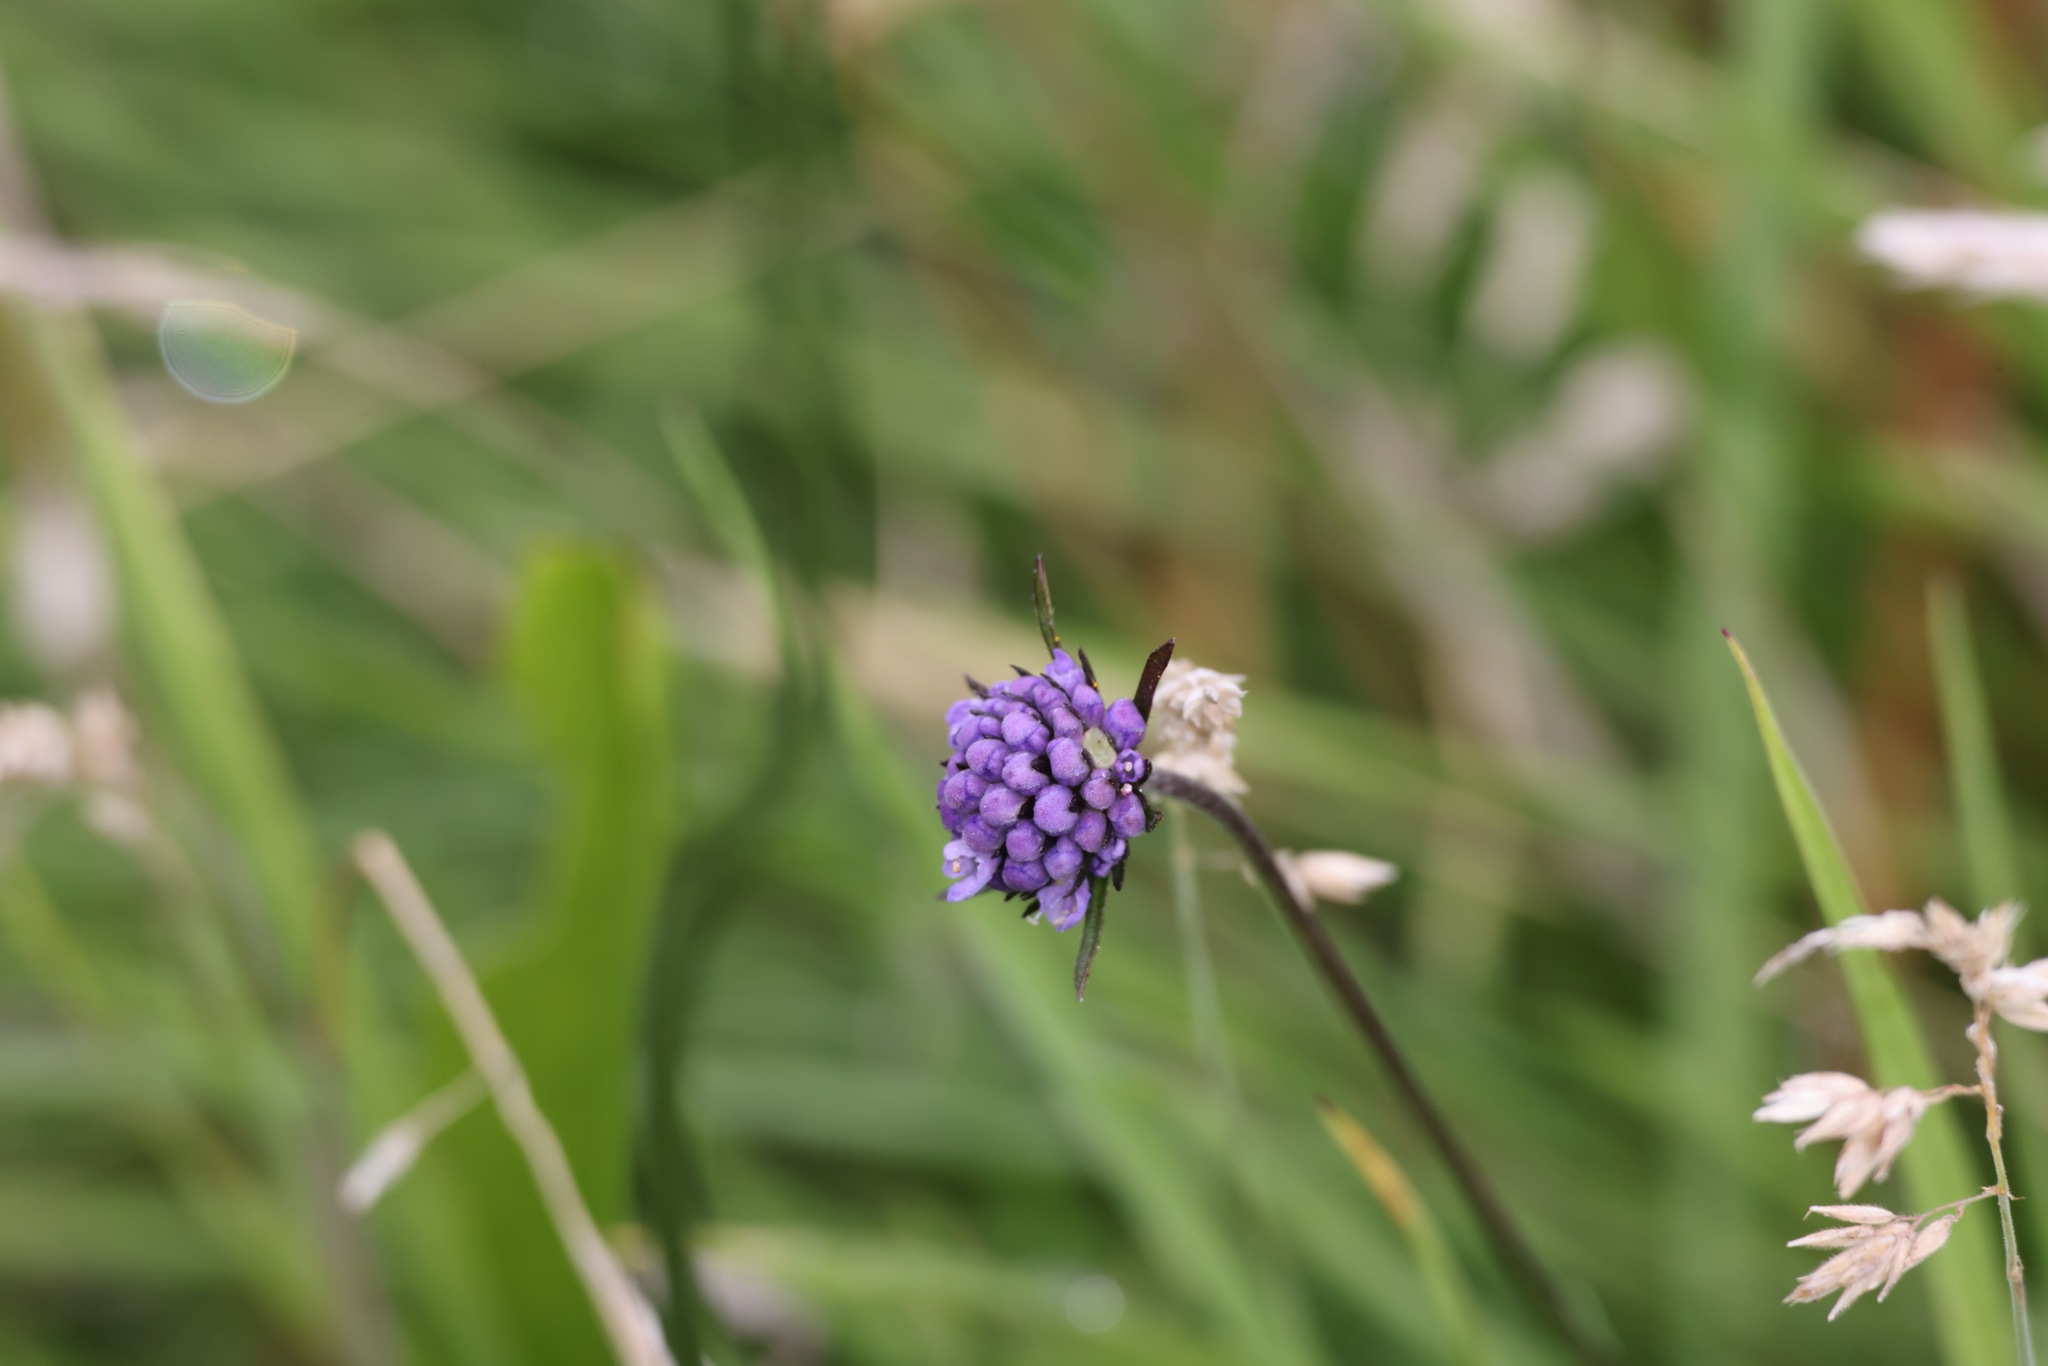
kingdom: Plantae
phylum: Tracheophyta
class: Magnoliopsida
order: Dipsacales
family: Caprifoliaceae
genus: Succisa
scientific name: Succisa pratensis
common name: Devil's-bit
